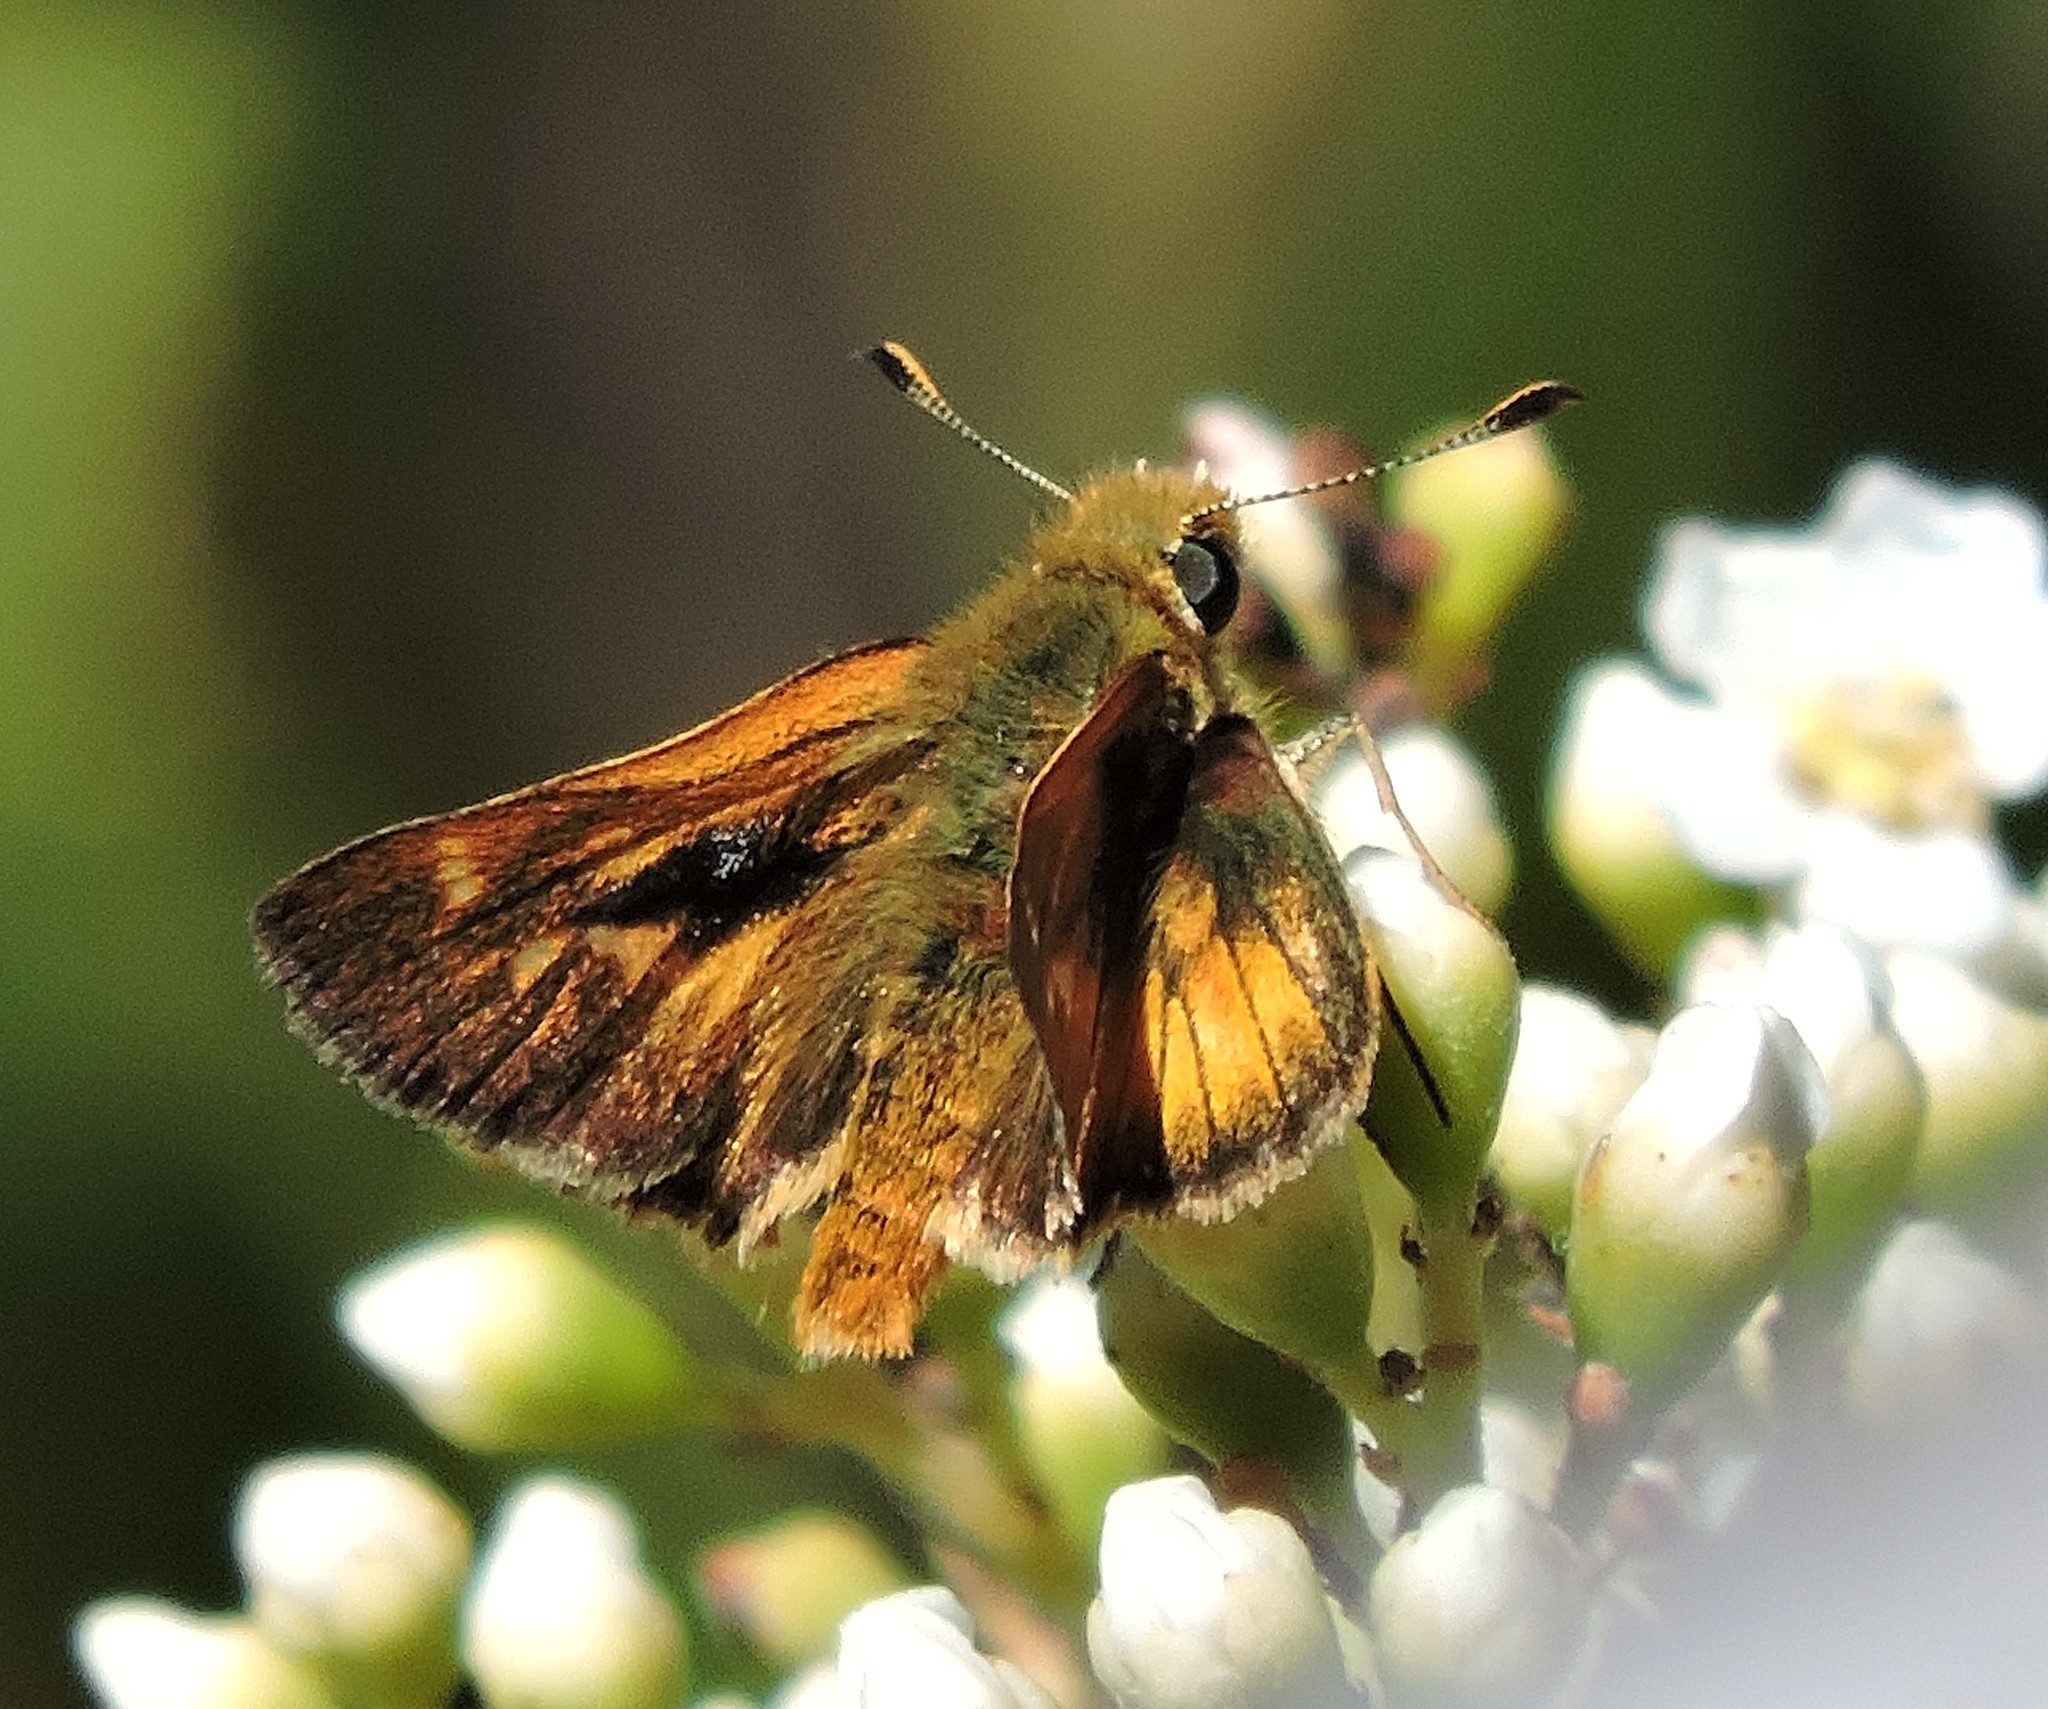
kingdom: Animalia
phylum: Arthropoda
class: Insecta
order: Lepidoptera
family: Hesperiidae
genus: Ochlodes
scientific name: Ochlodes agricola
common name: Rural skipper
